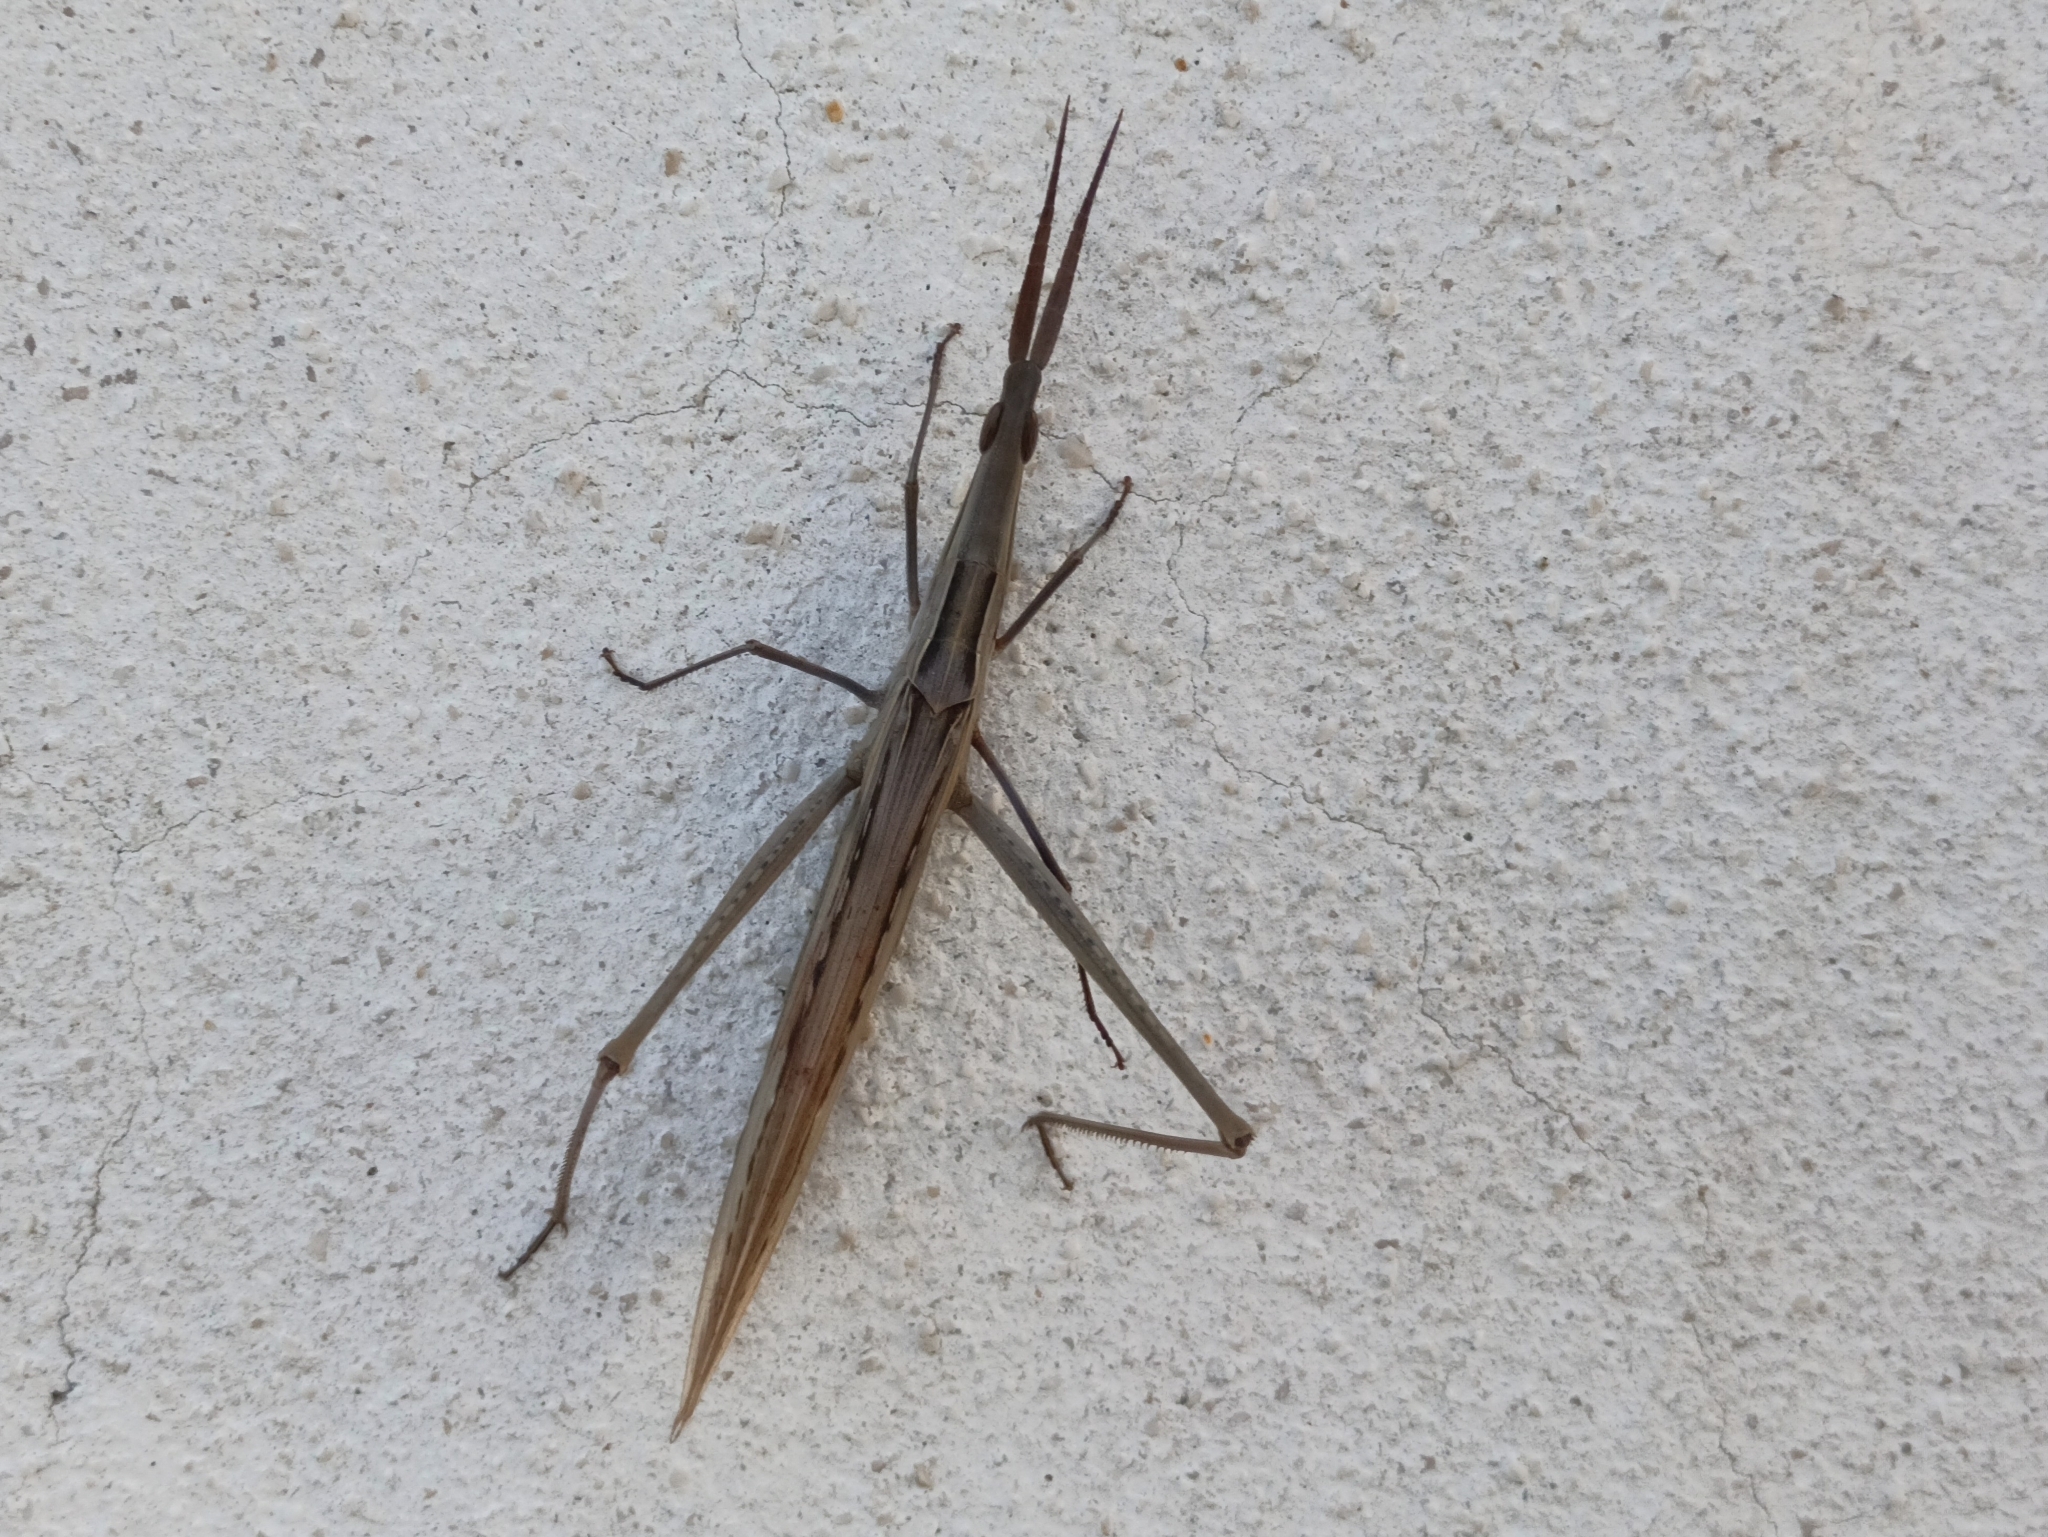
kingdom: Animalia
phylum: Arthropoda
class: Insecta
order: Orthoptera
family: Acrididae
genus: Acrida
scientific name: Acrida ungarica
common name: Common cone-headed grasshopper
